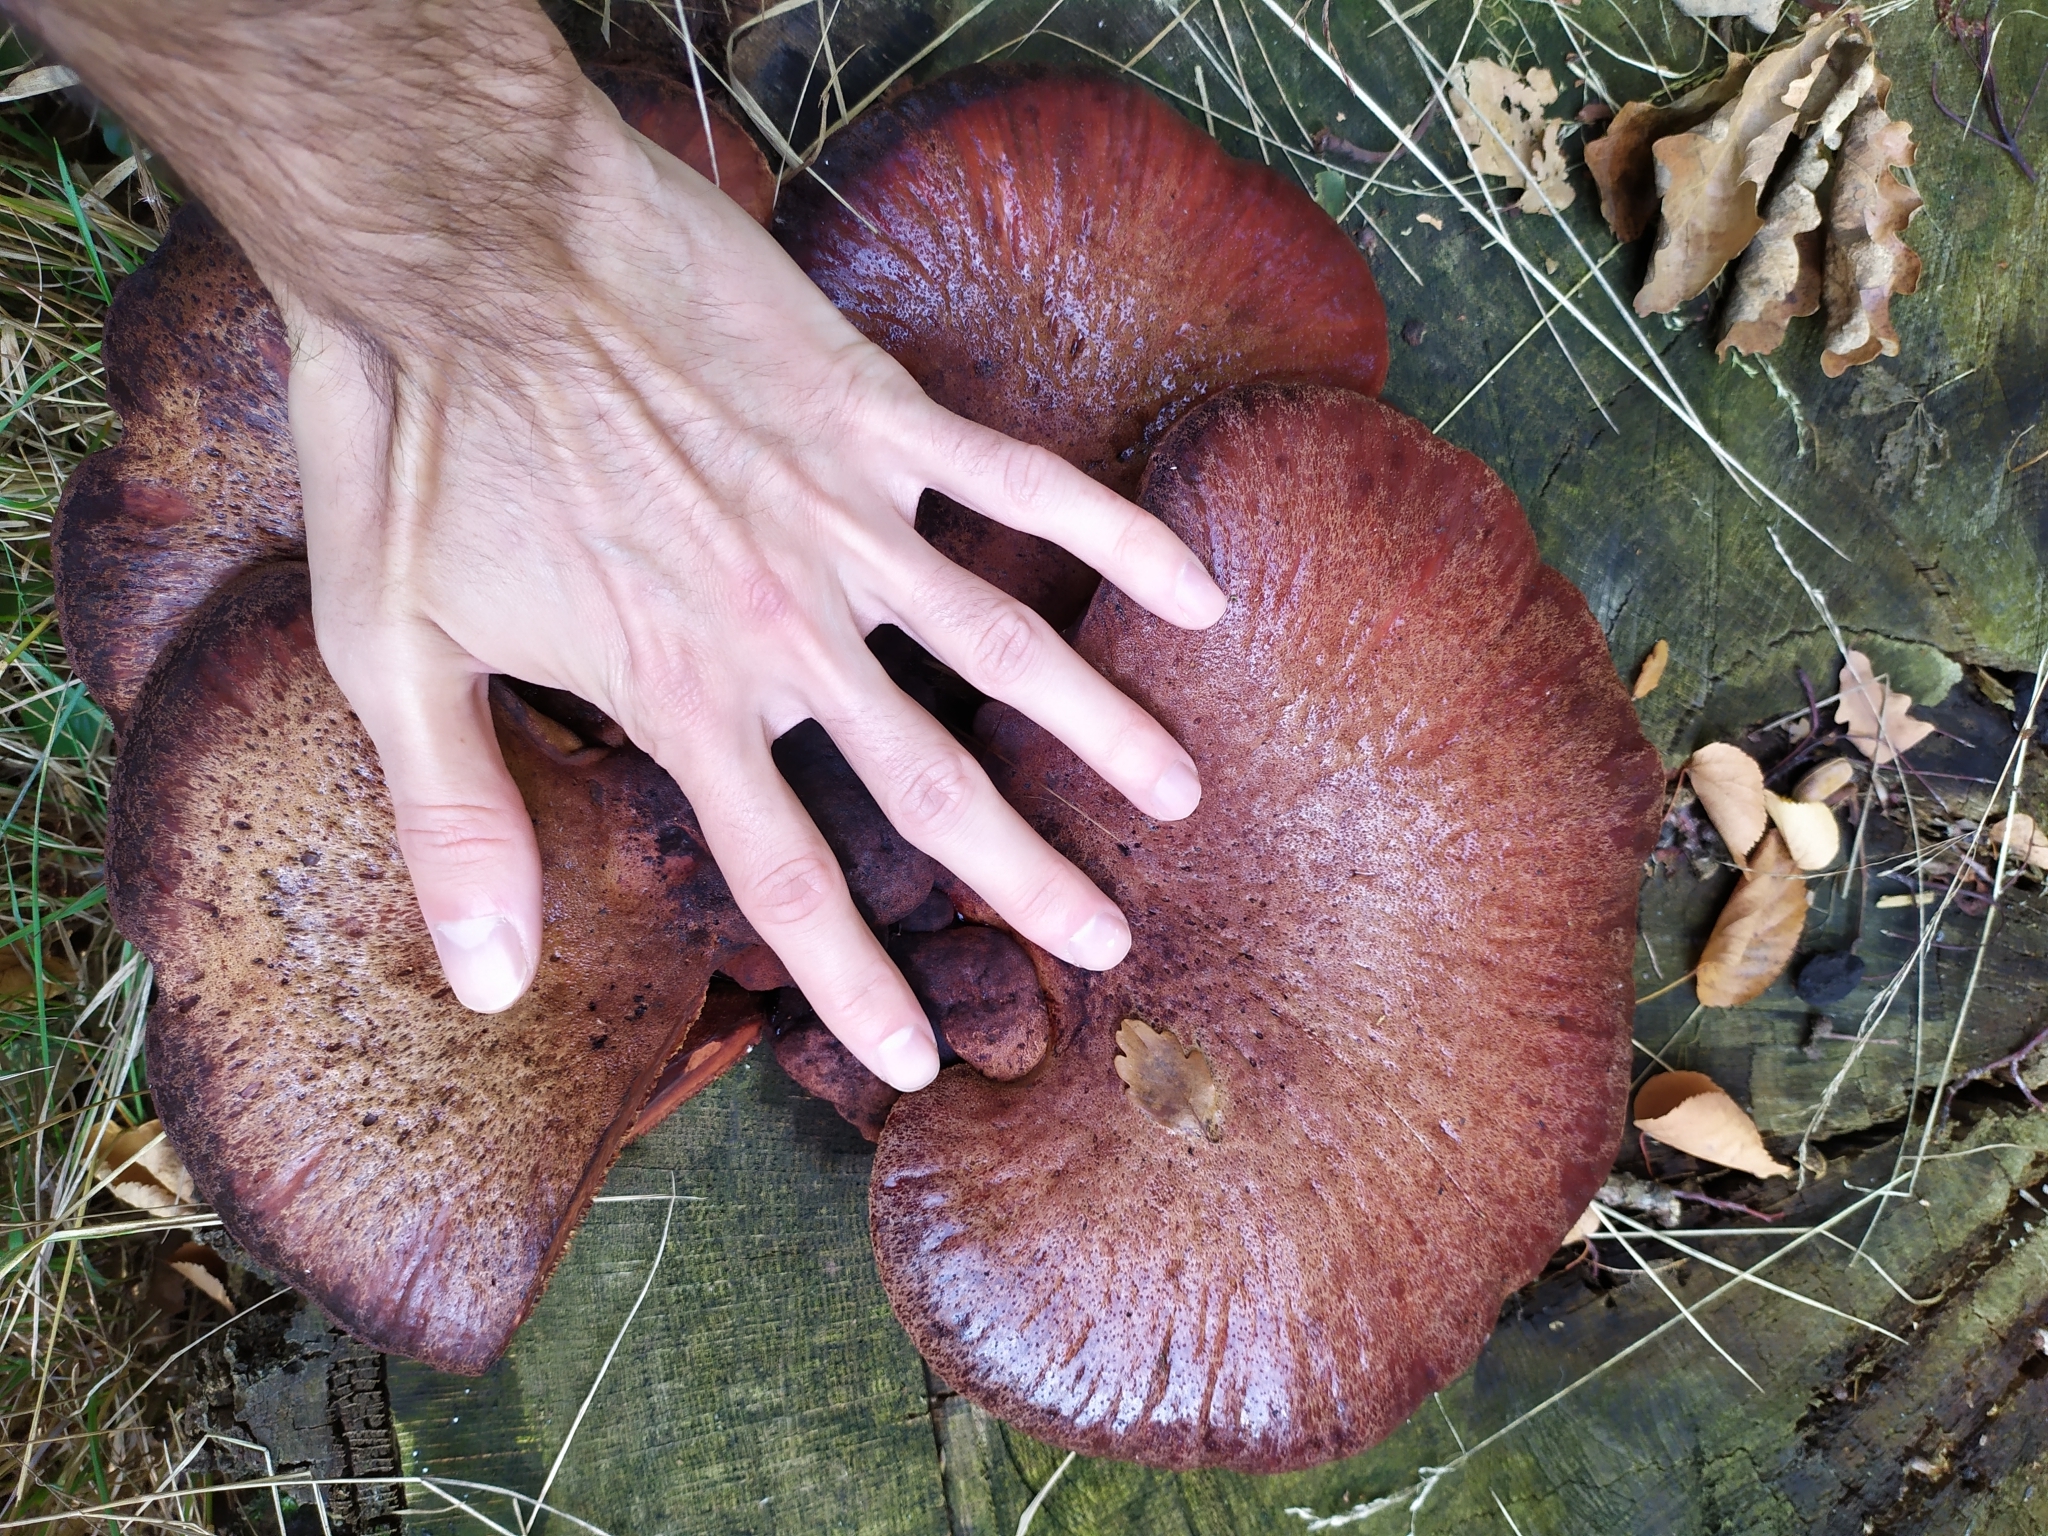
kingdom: Fungi
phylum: Basidiomycota
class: Agaricomycetes
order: Agaricales
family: Fistulinaceae
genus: Fistulina
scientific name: Fistulina hepatica
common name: Beef-steak fungus
